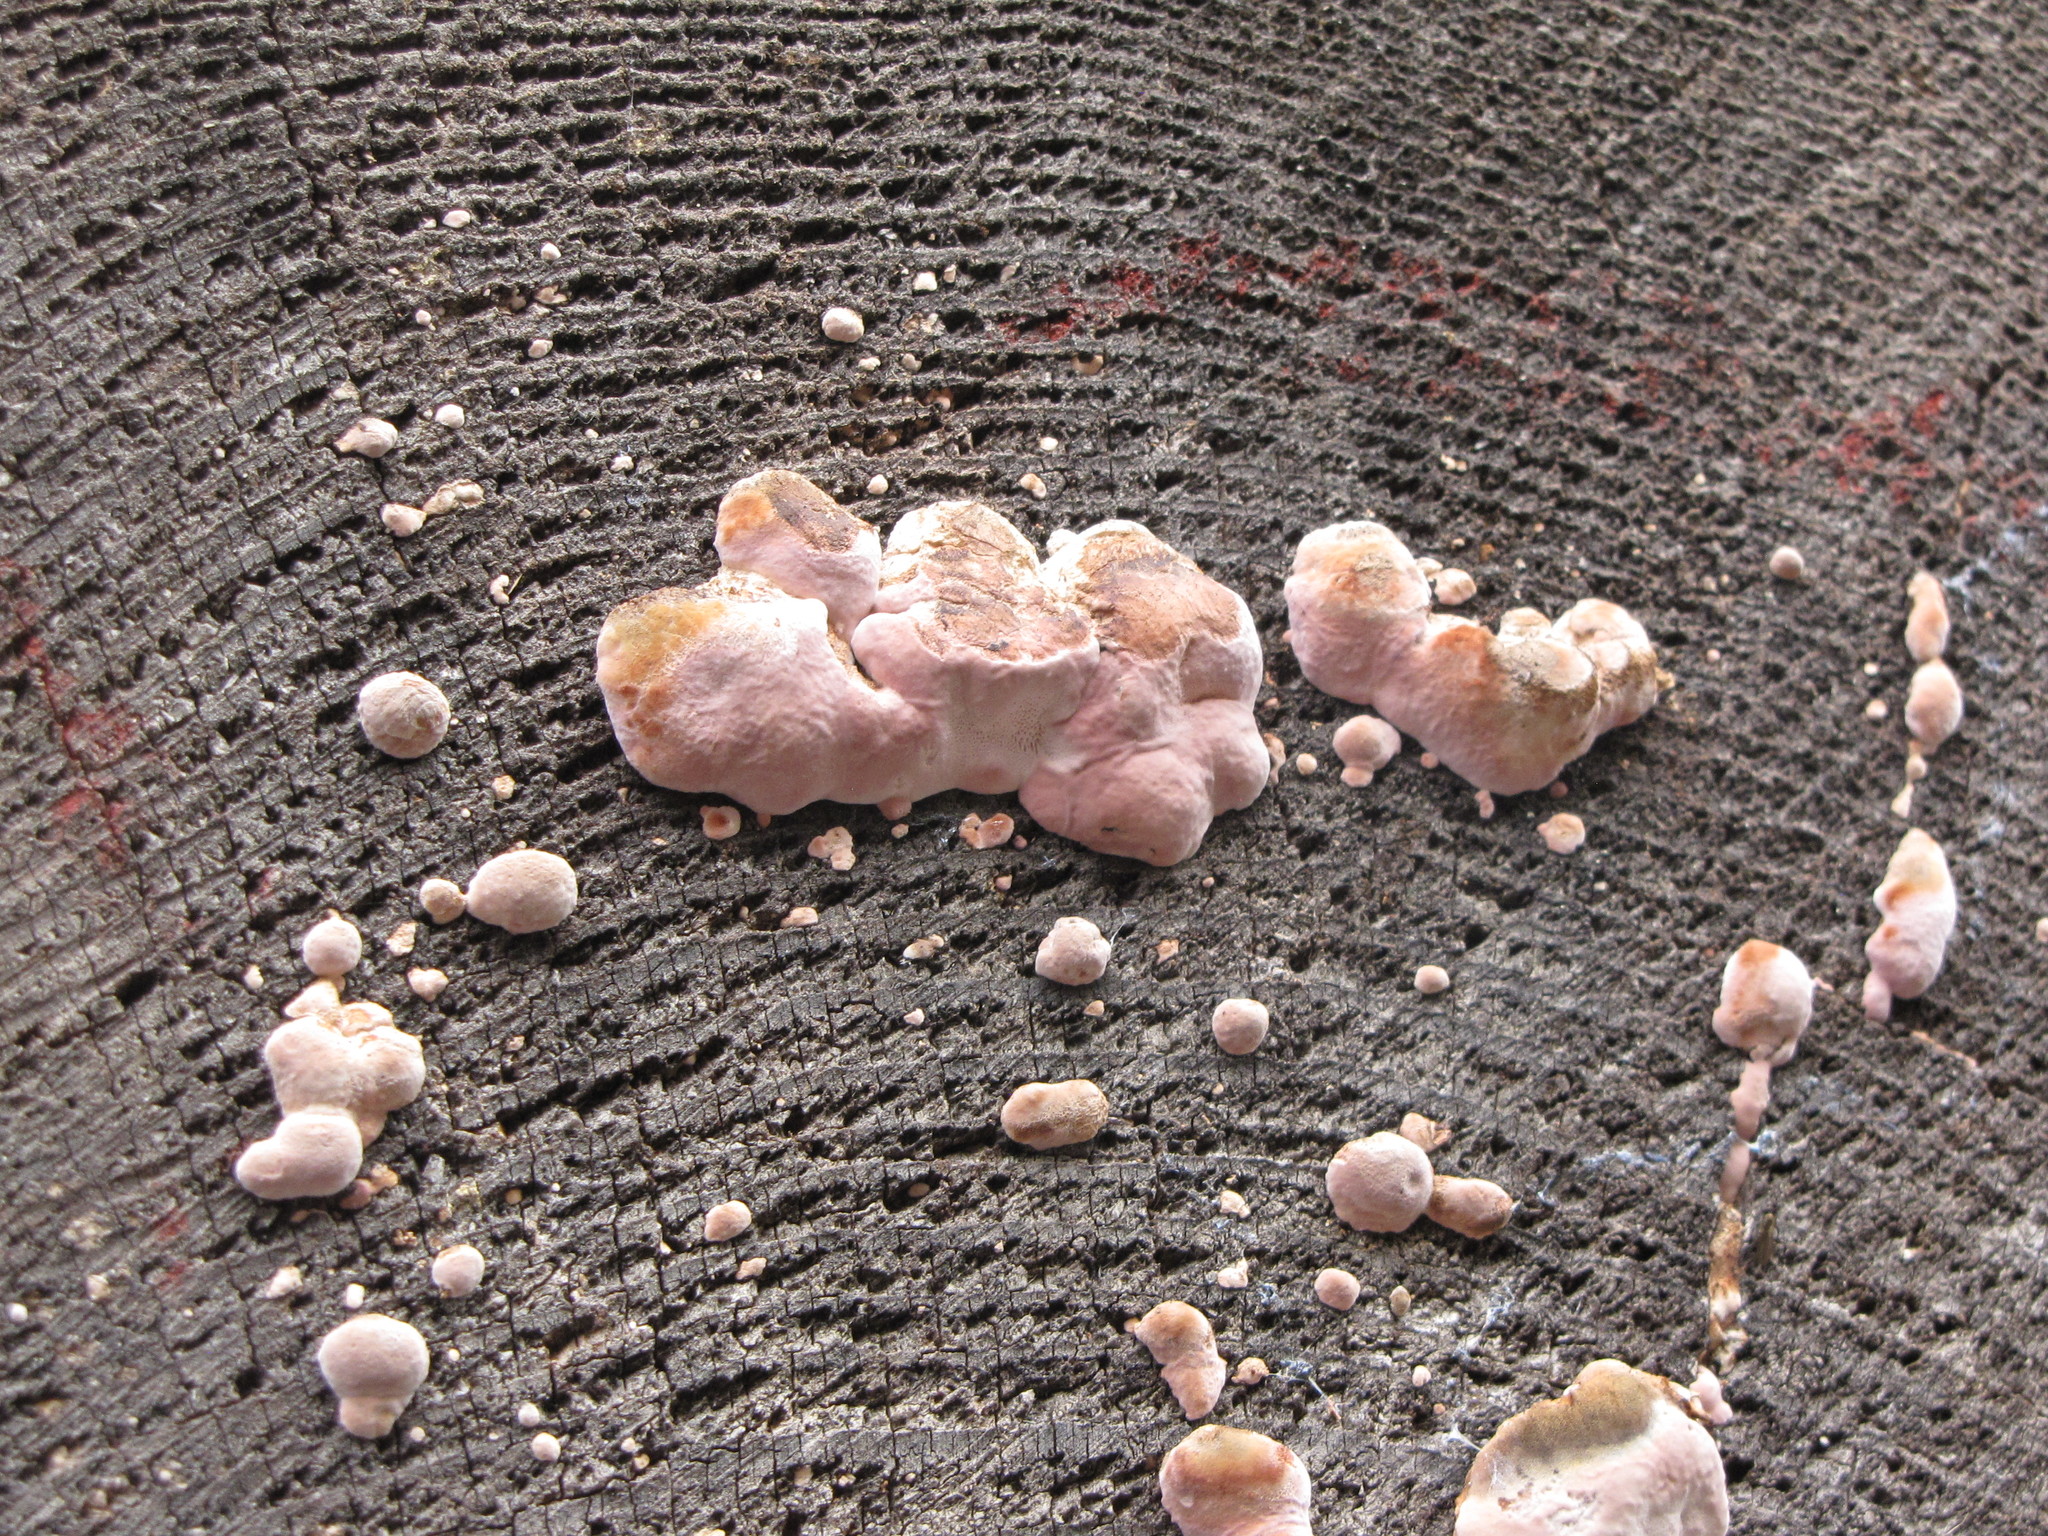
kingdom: Fungi
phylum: Basidiomycota
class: Agaricomycetes
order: Polyporales
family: Fomitopsidaceae
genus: Rhodofomes
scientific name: Rhodofomes cajanderi
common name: Rosy conk
